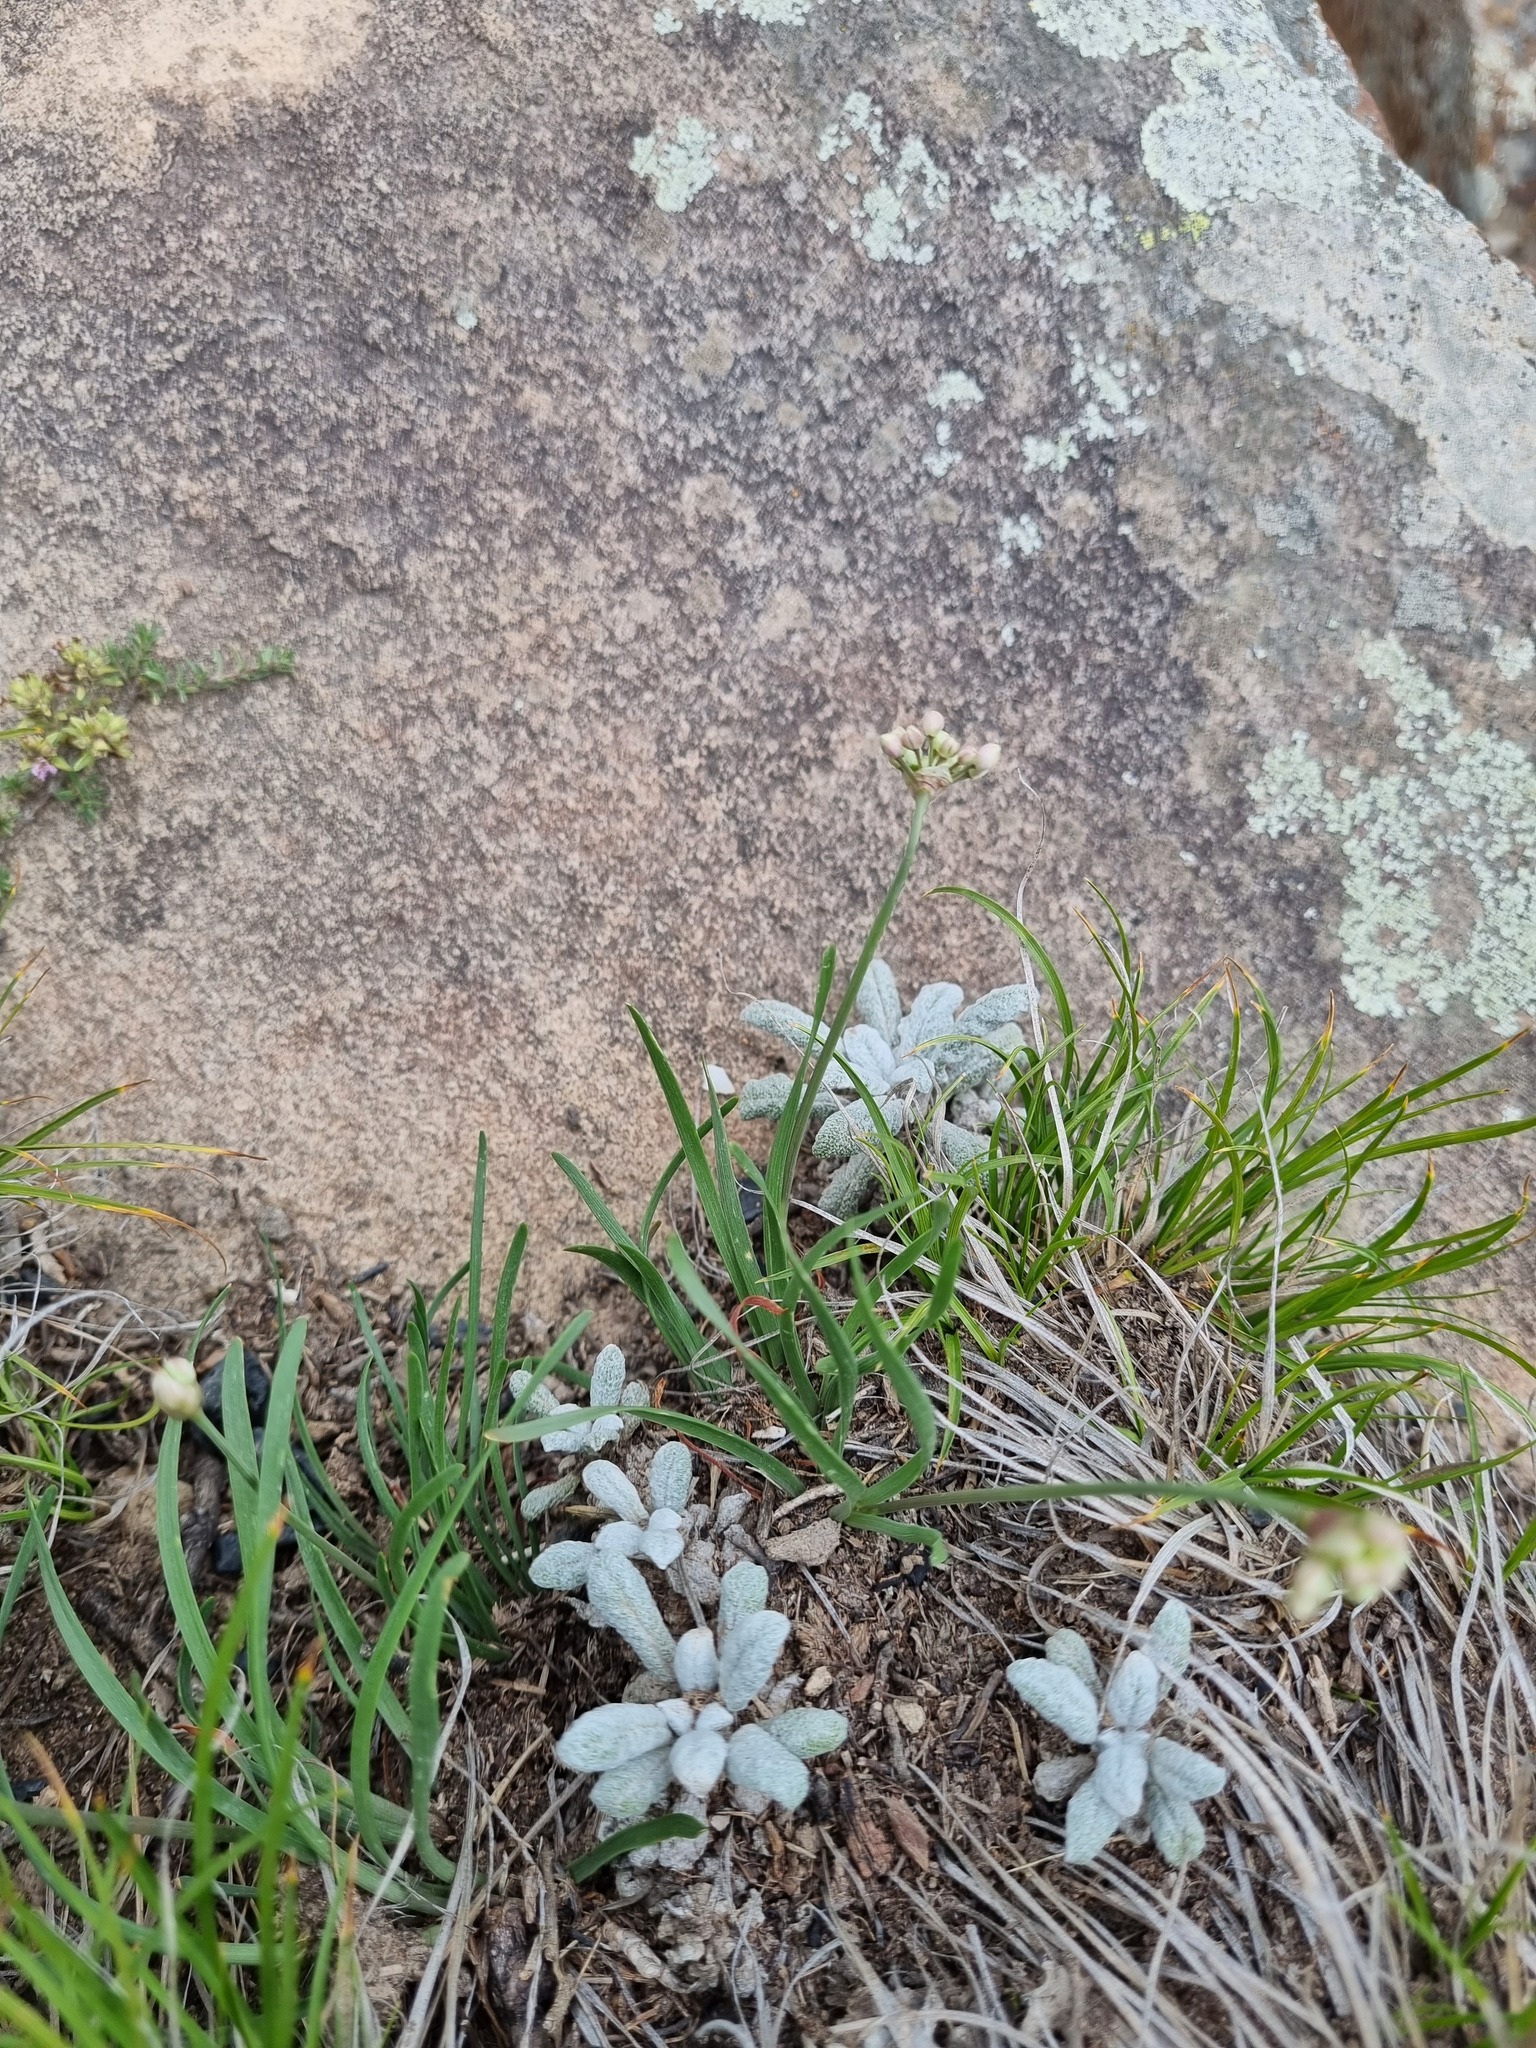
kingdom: Plantae
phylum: Tracheophyta
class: Magnoliopsida
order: Lamiales
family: Lamiaceae
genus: Salvia
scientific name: Salvia canescens
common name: Hoary salvia
